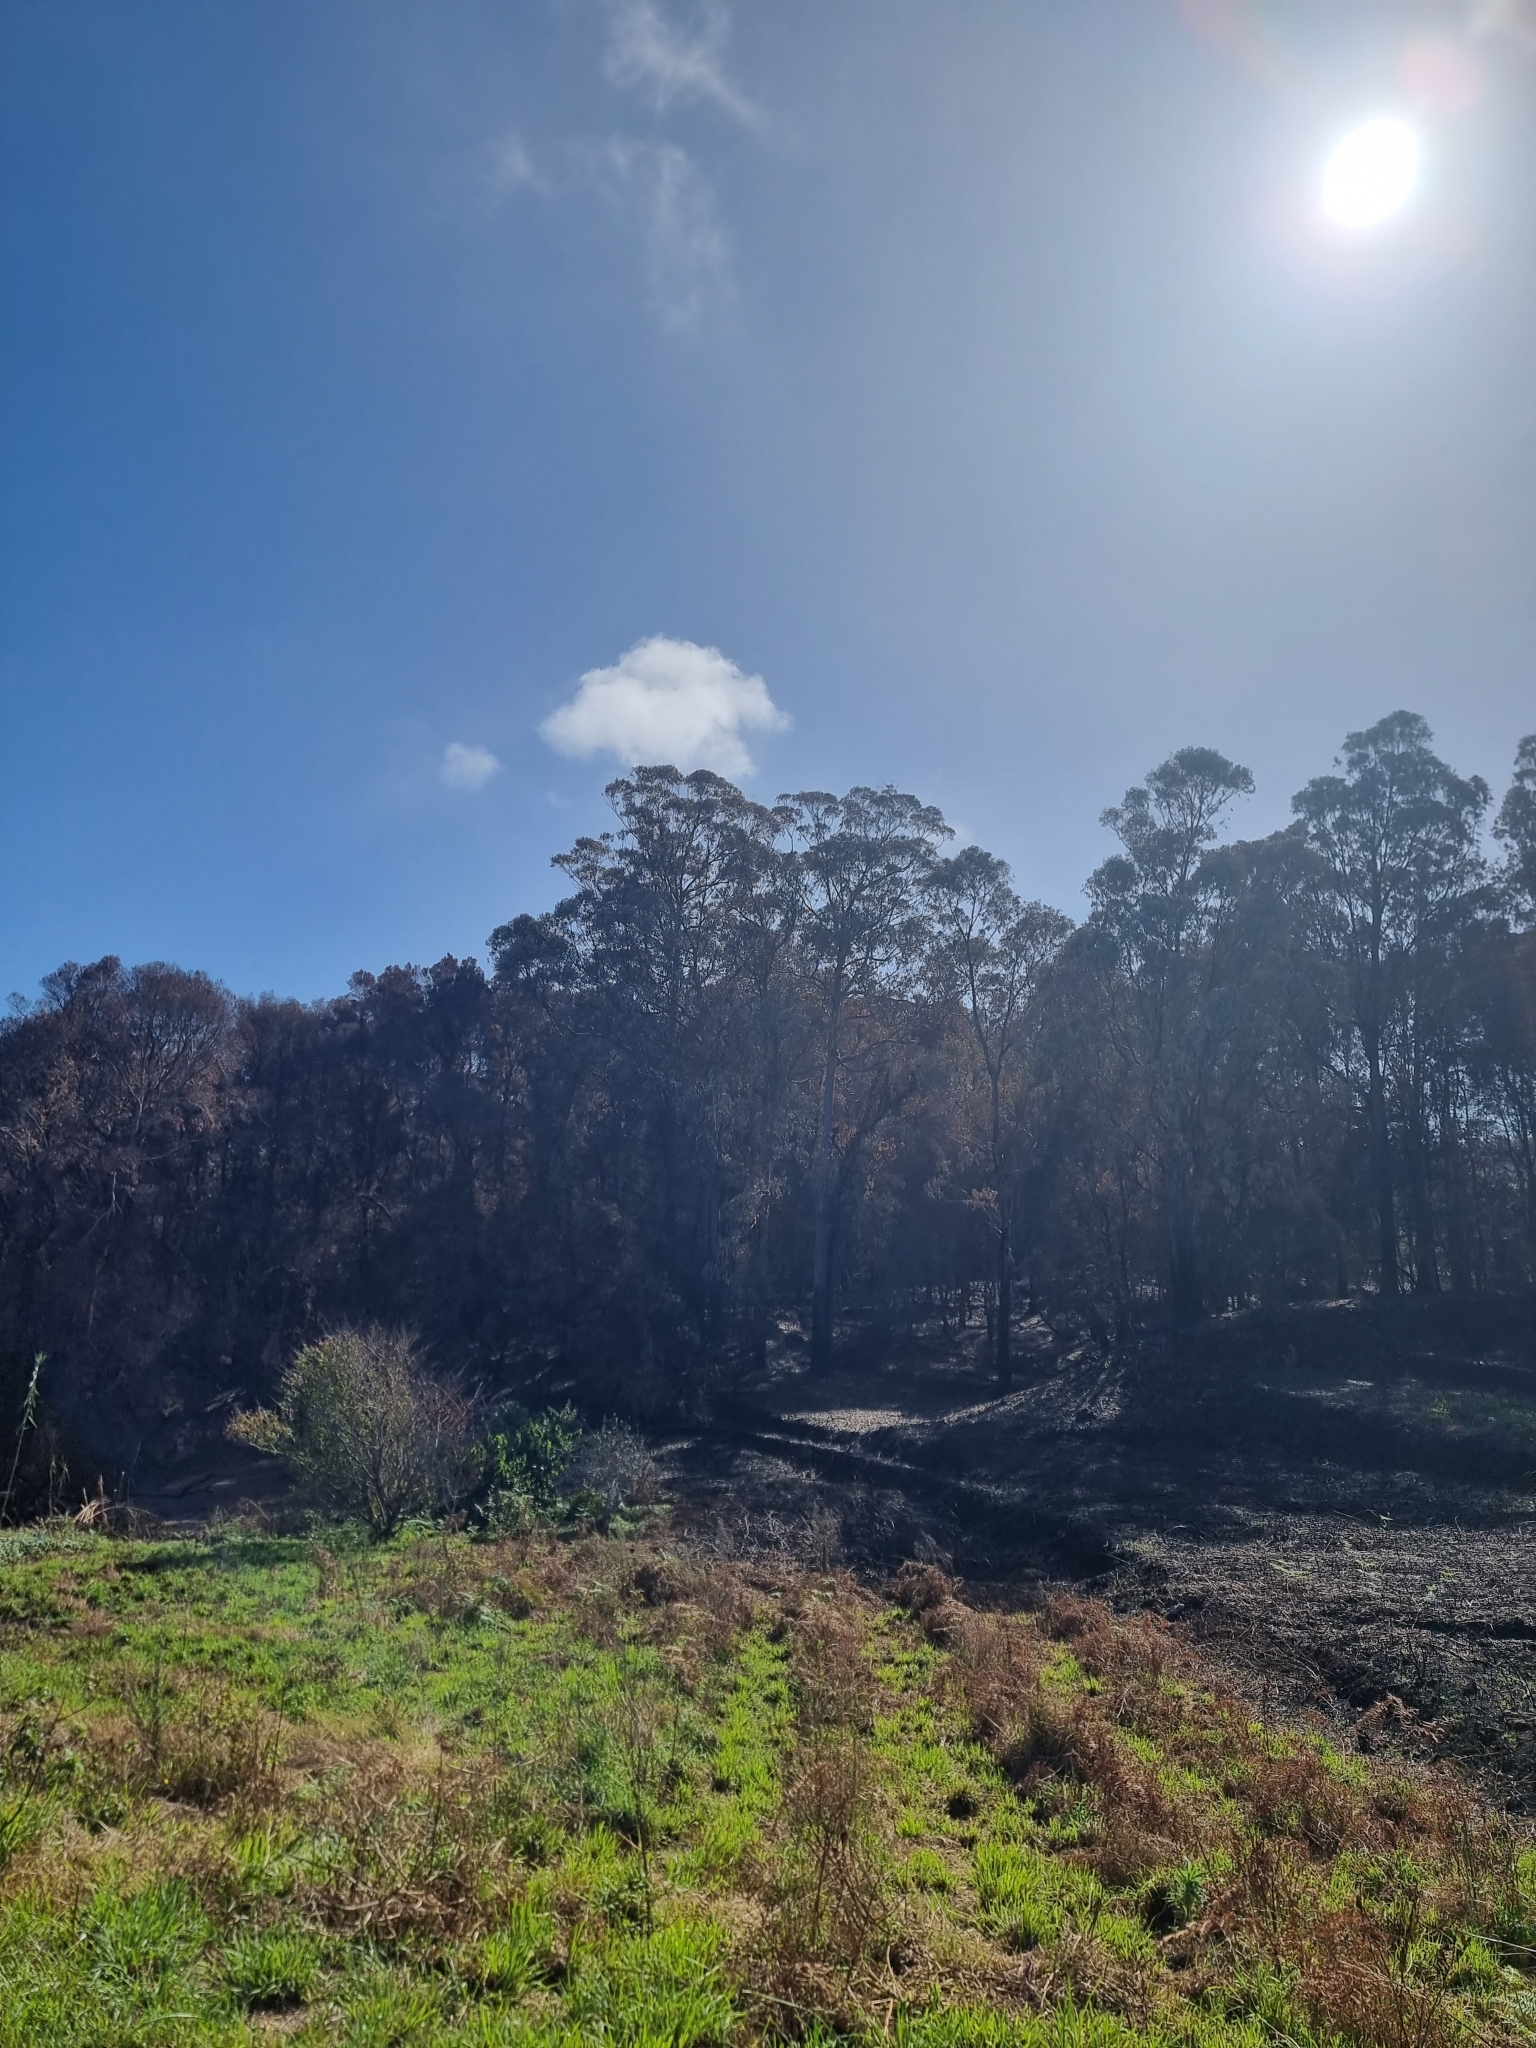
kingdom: Plantae
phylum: Tracheophyta
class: Magnoliopsida
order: Myrtales
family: Myrtaceae
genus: Eucalyptus
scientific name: Eucalyptus globulus
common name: Southern blue-gum
